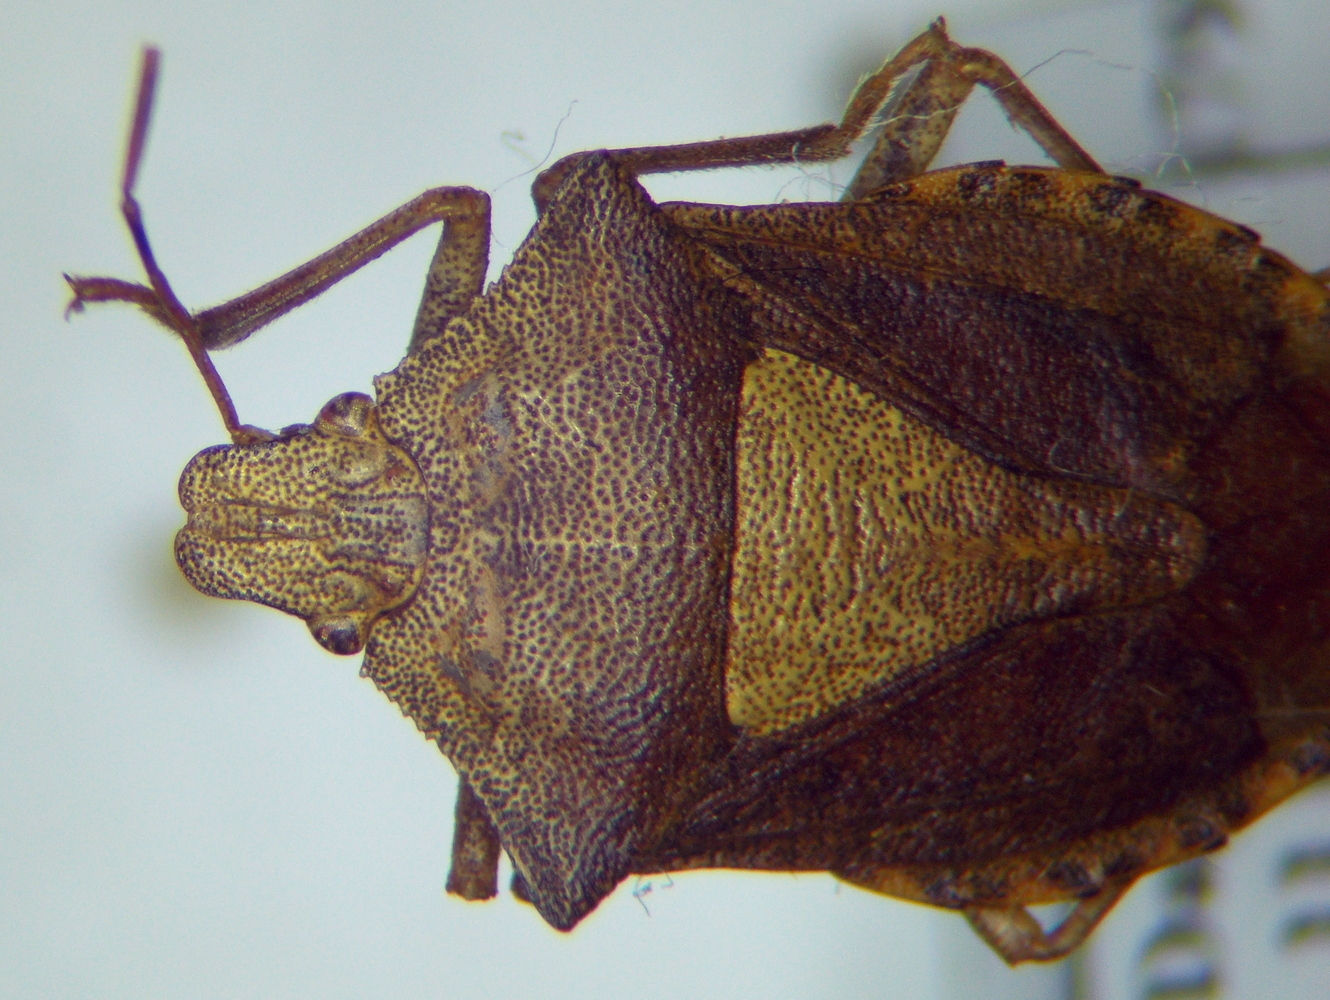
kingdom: Animalia
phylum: Arthropoda
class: Insecta
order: Hemiptera
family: Pentatomidae
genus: Arma
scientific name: Arma custos
